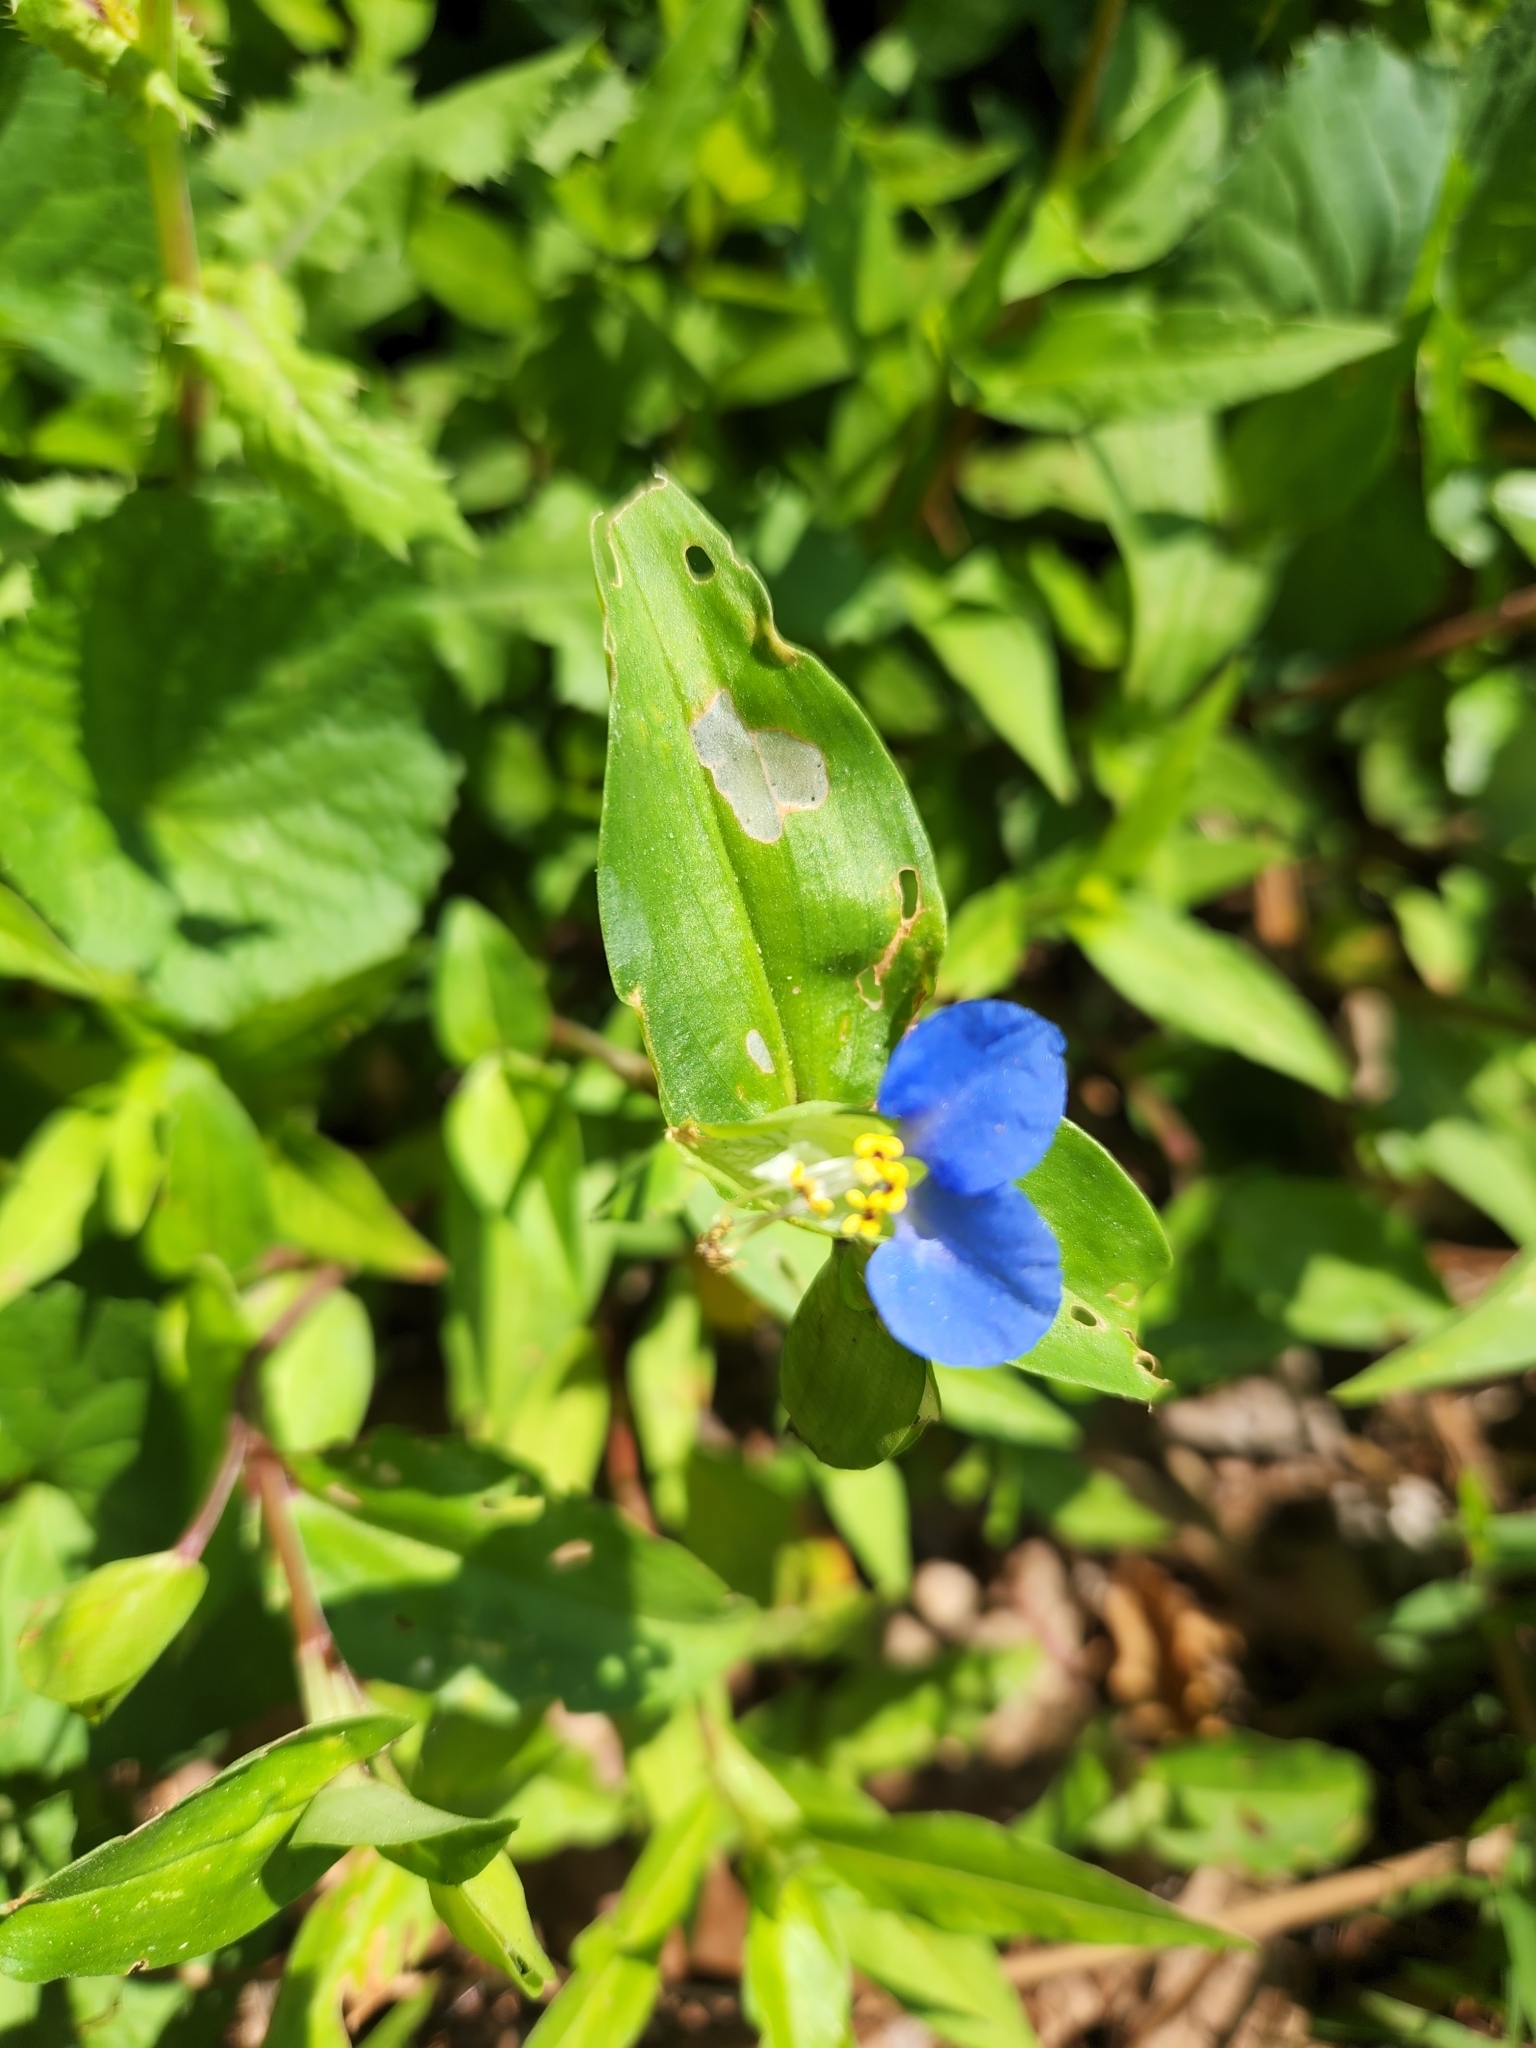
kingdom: Plantae
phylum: Tracheophyta
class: Liliopsida
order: Commelinales
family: Commelinaceae
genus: Commelina
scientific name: Commelina communis
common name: Asiatic dayflower
